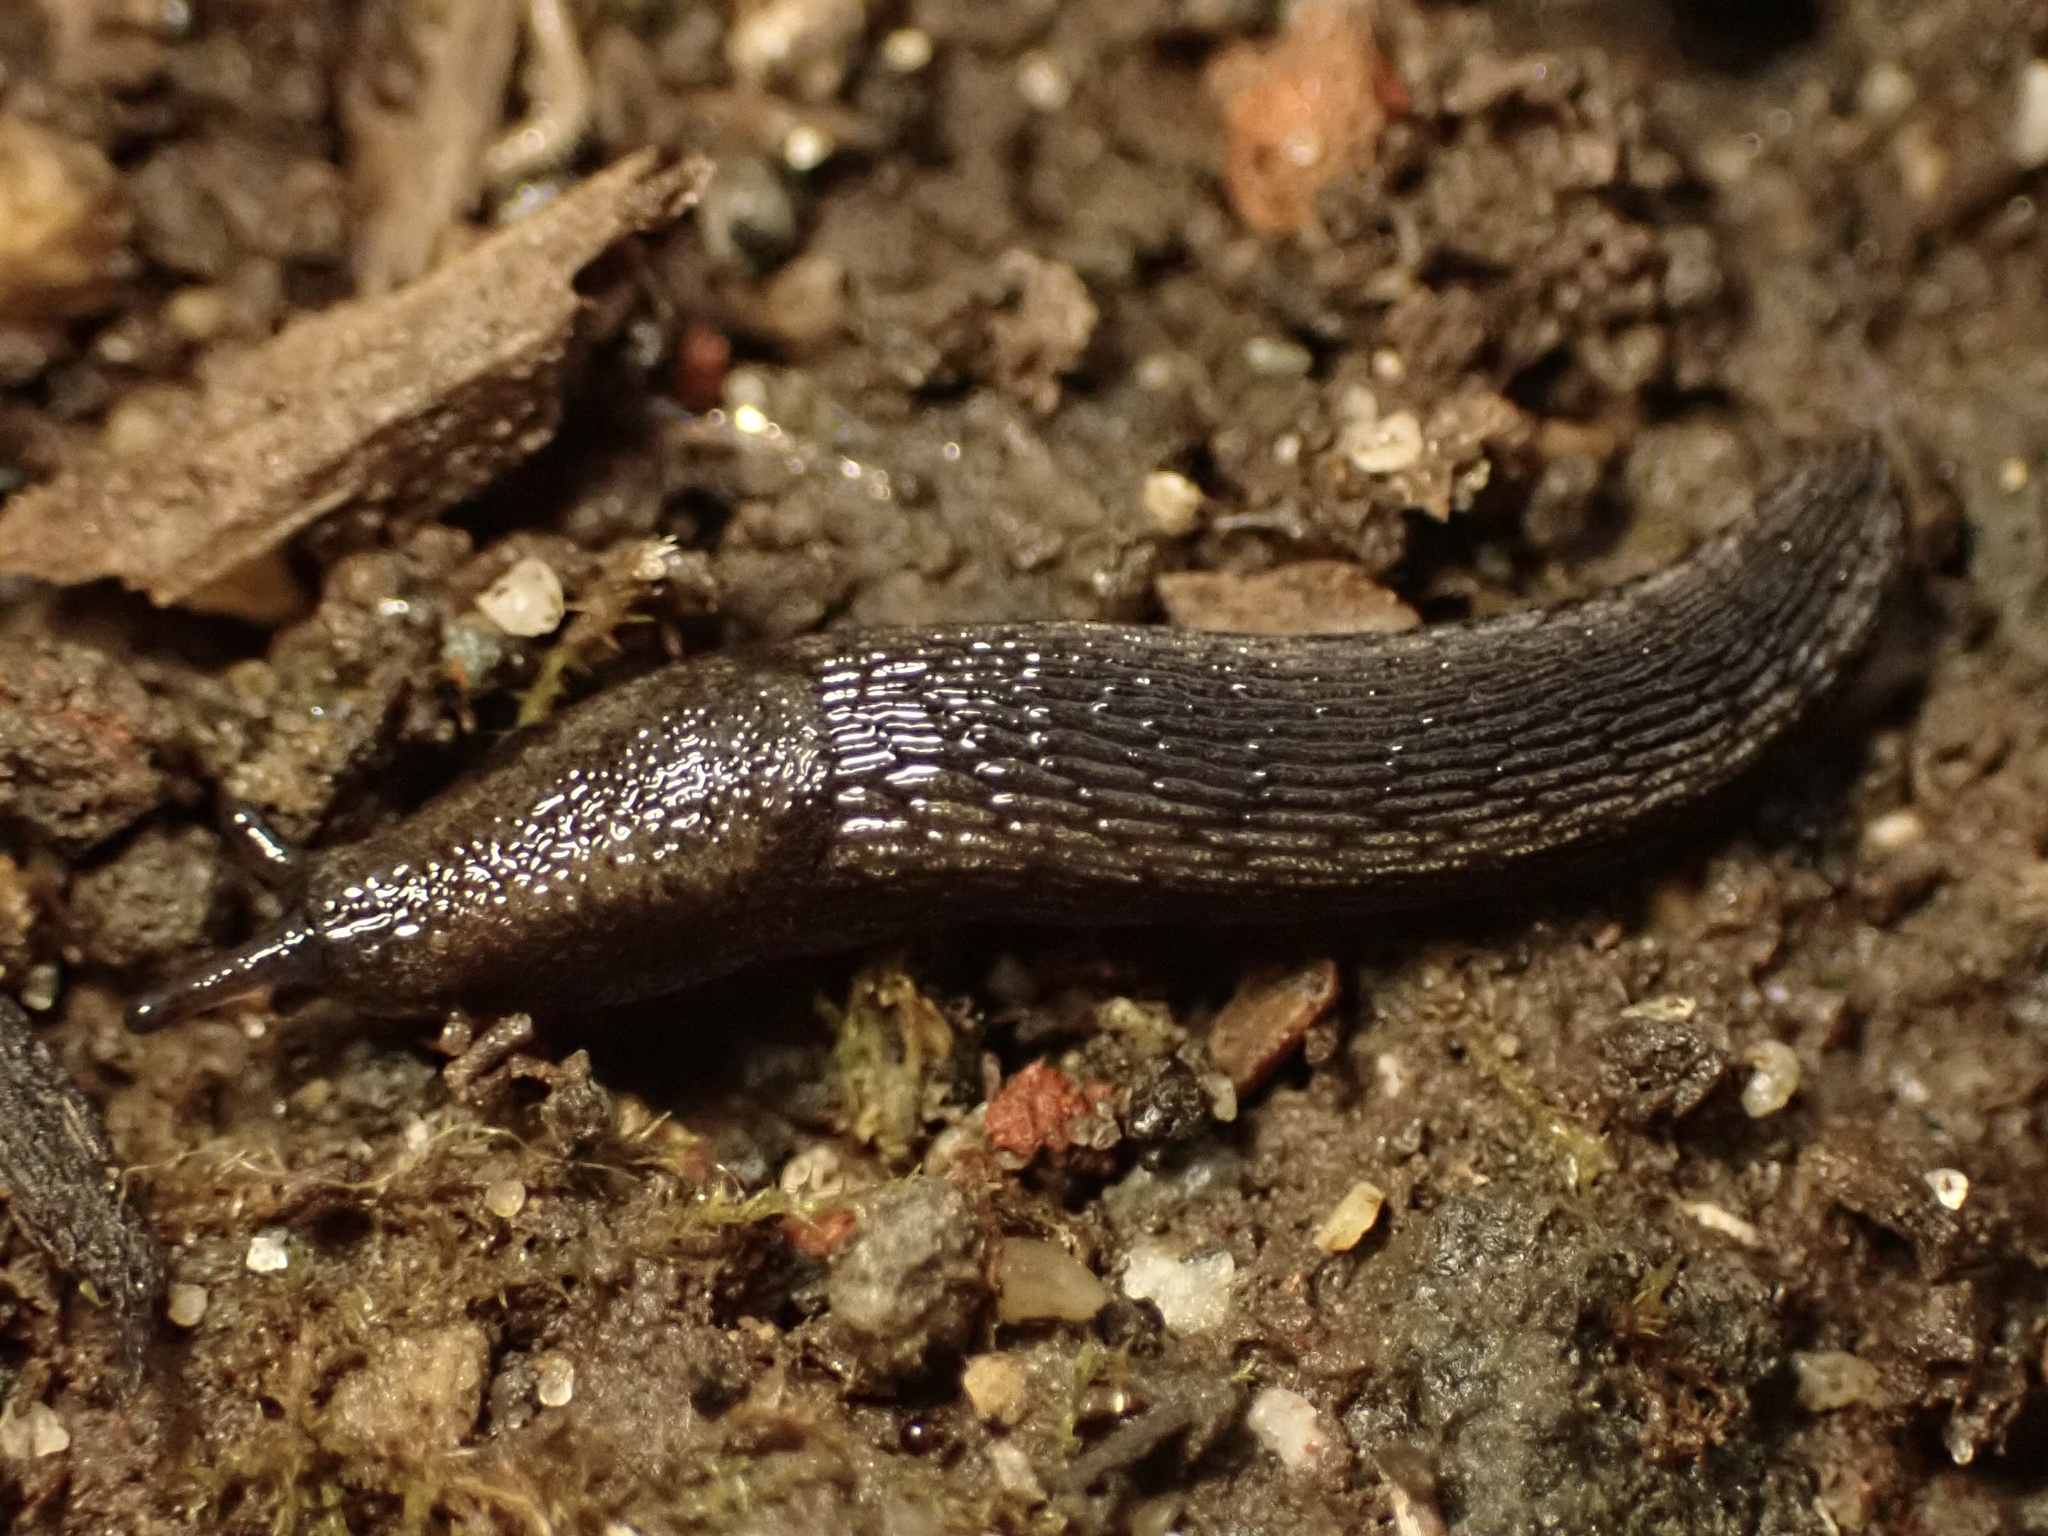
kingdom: Animalia
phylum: Mollusca
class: Gastropoda
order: Stylommatophora
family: Arionidae
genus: Kobeltia
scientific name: Kobeltia
